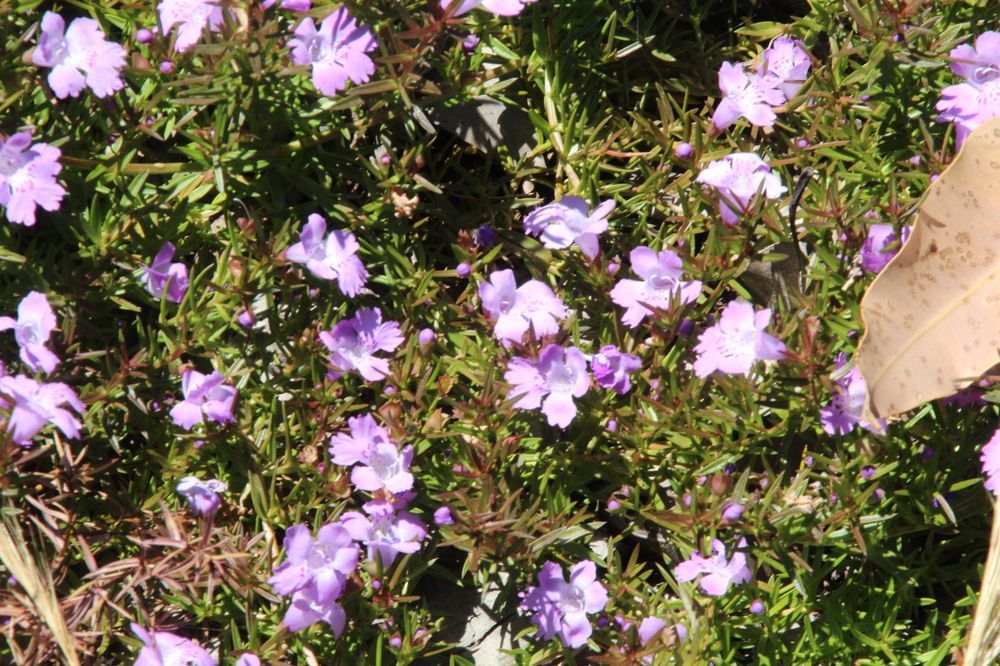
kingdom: Plantae
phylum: Tracheophyta
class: Magnoliopsida
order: Lamiales
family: Lamiaceae
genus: Hemiandra
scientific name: Hemiandra pungens
